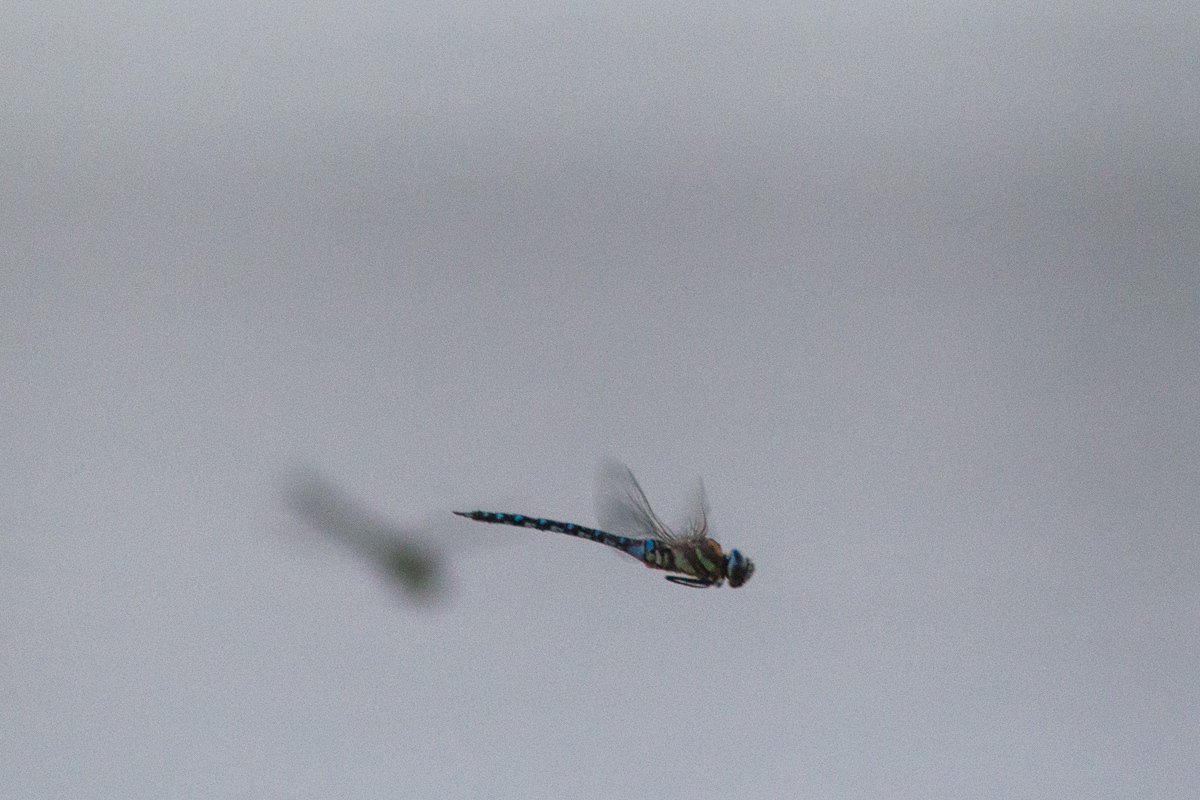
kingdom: Animalia
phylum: Arthropoda
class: Insecta
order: Odonata
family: Aeshnidae
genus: Aeshna
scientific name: Aeshna mixta
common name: Migrant hawker
